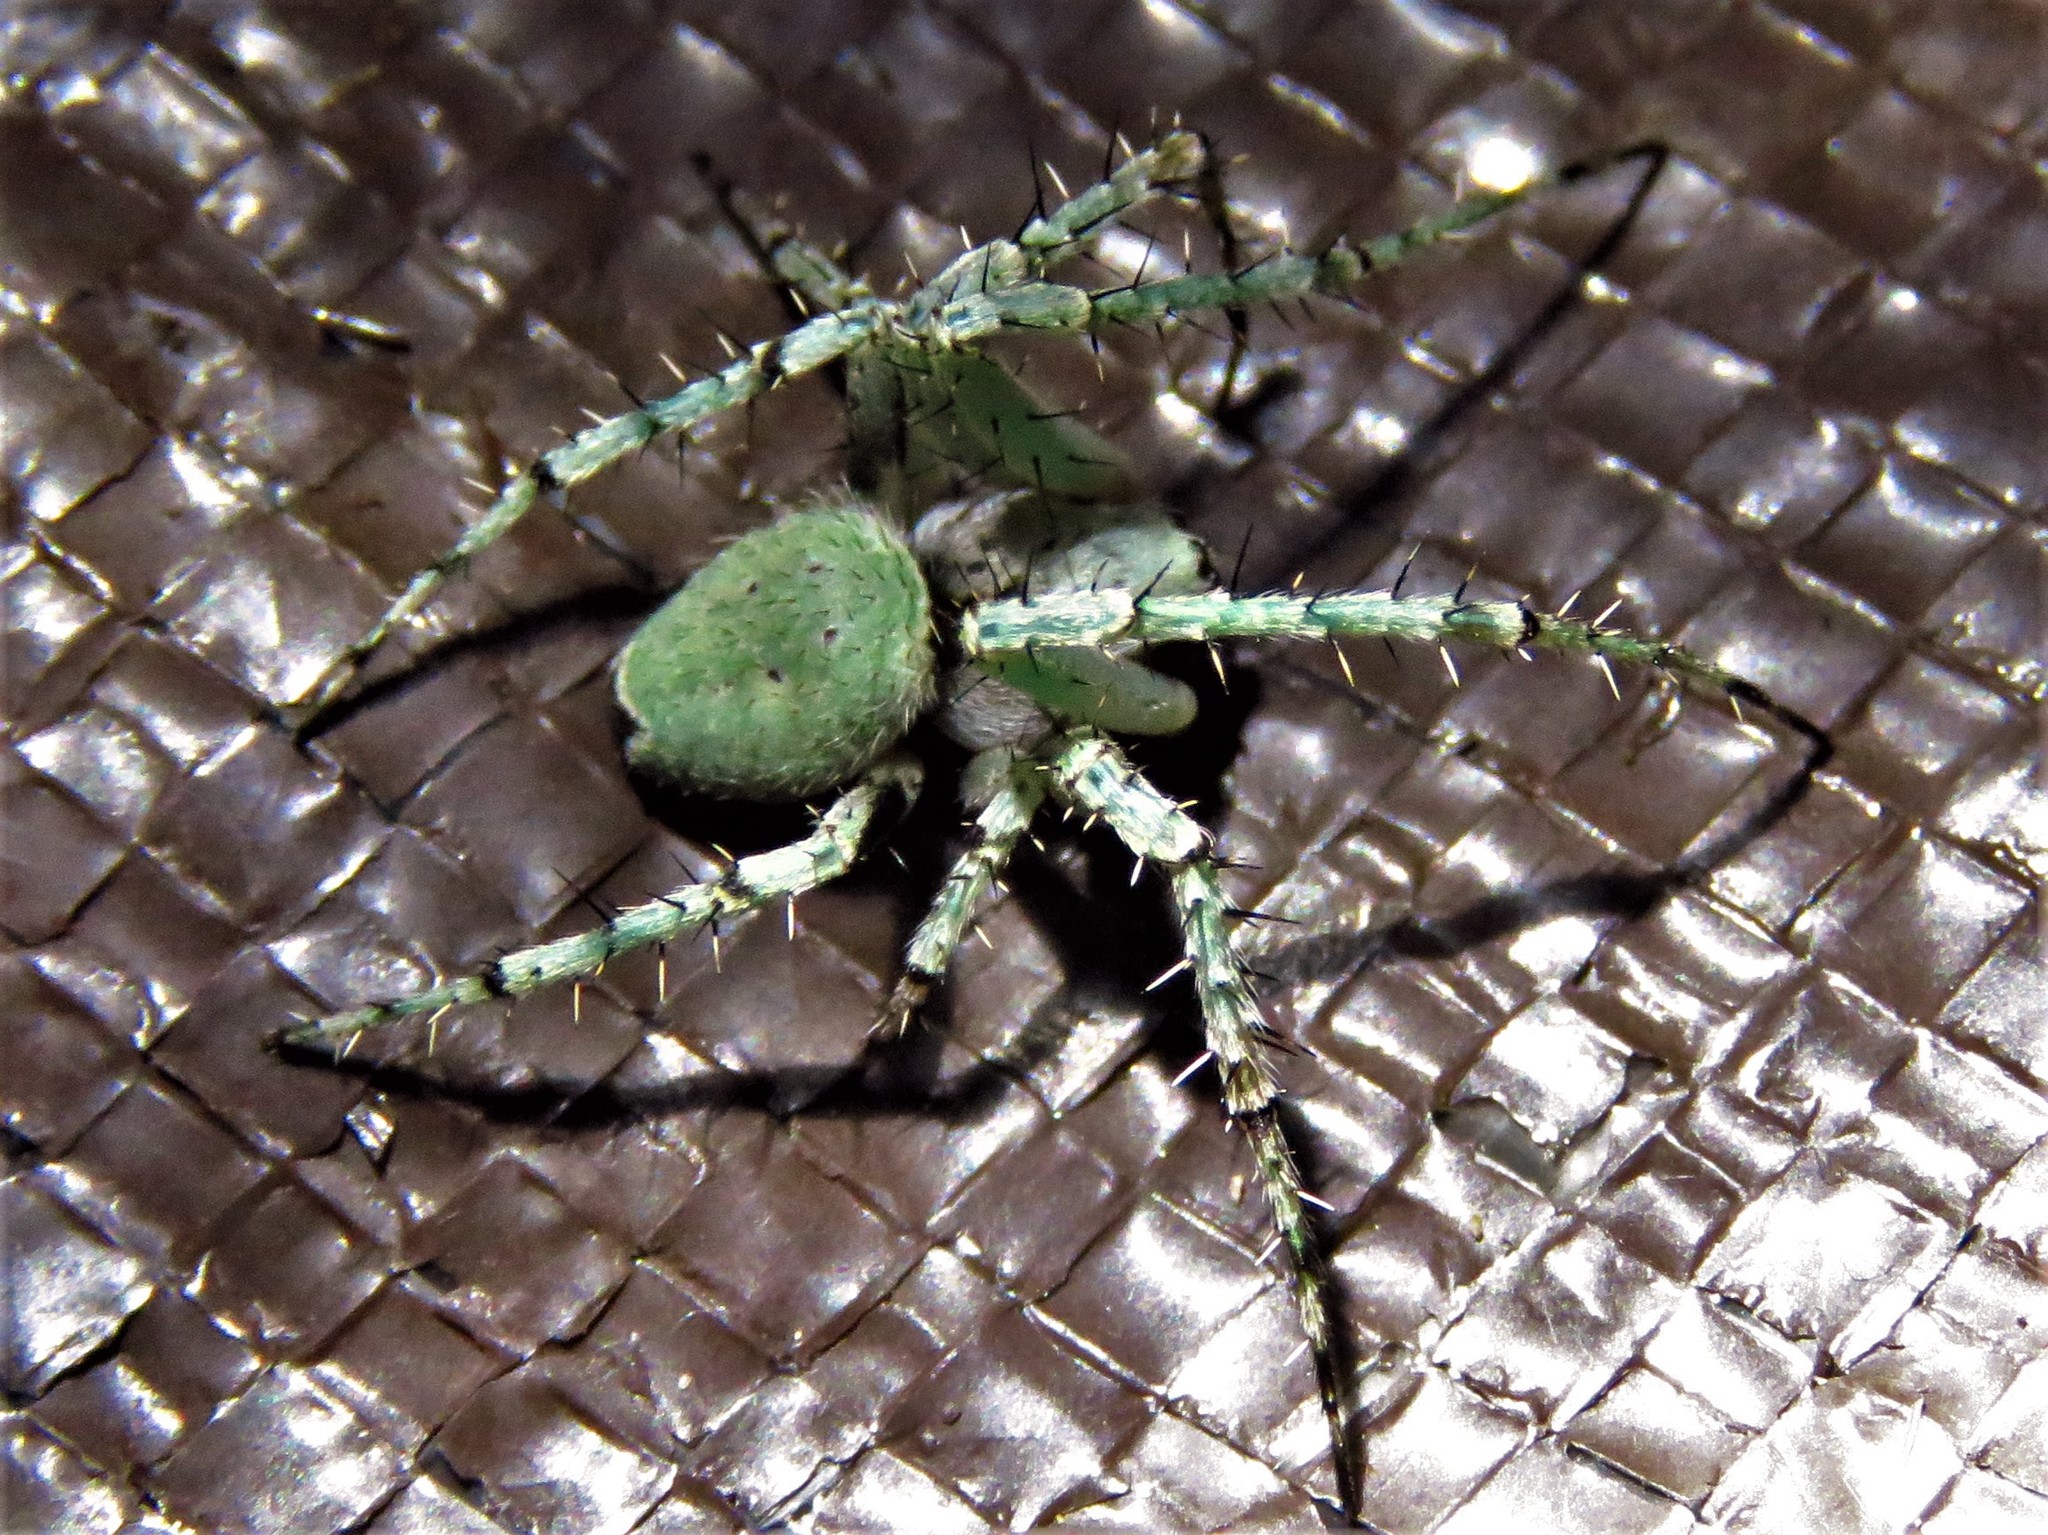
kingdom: Animalia
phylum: Arthropoda
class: Arachnida
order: Araneae
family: Araneidae
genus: Eustala
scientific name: Eustala anastera
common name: Orb weavers
